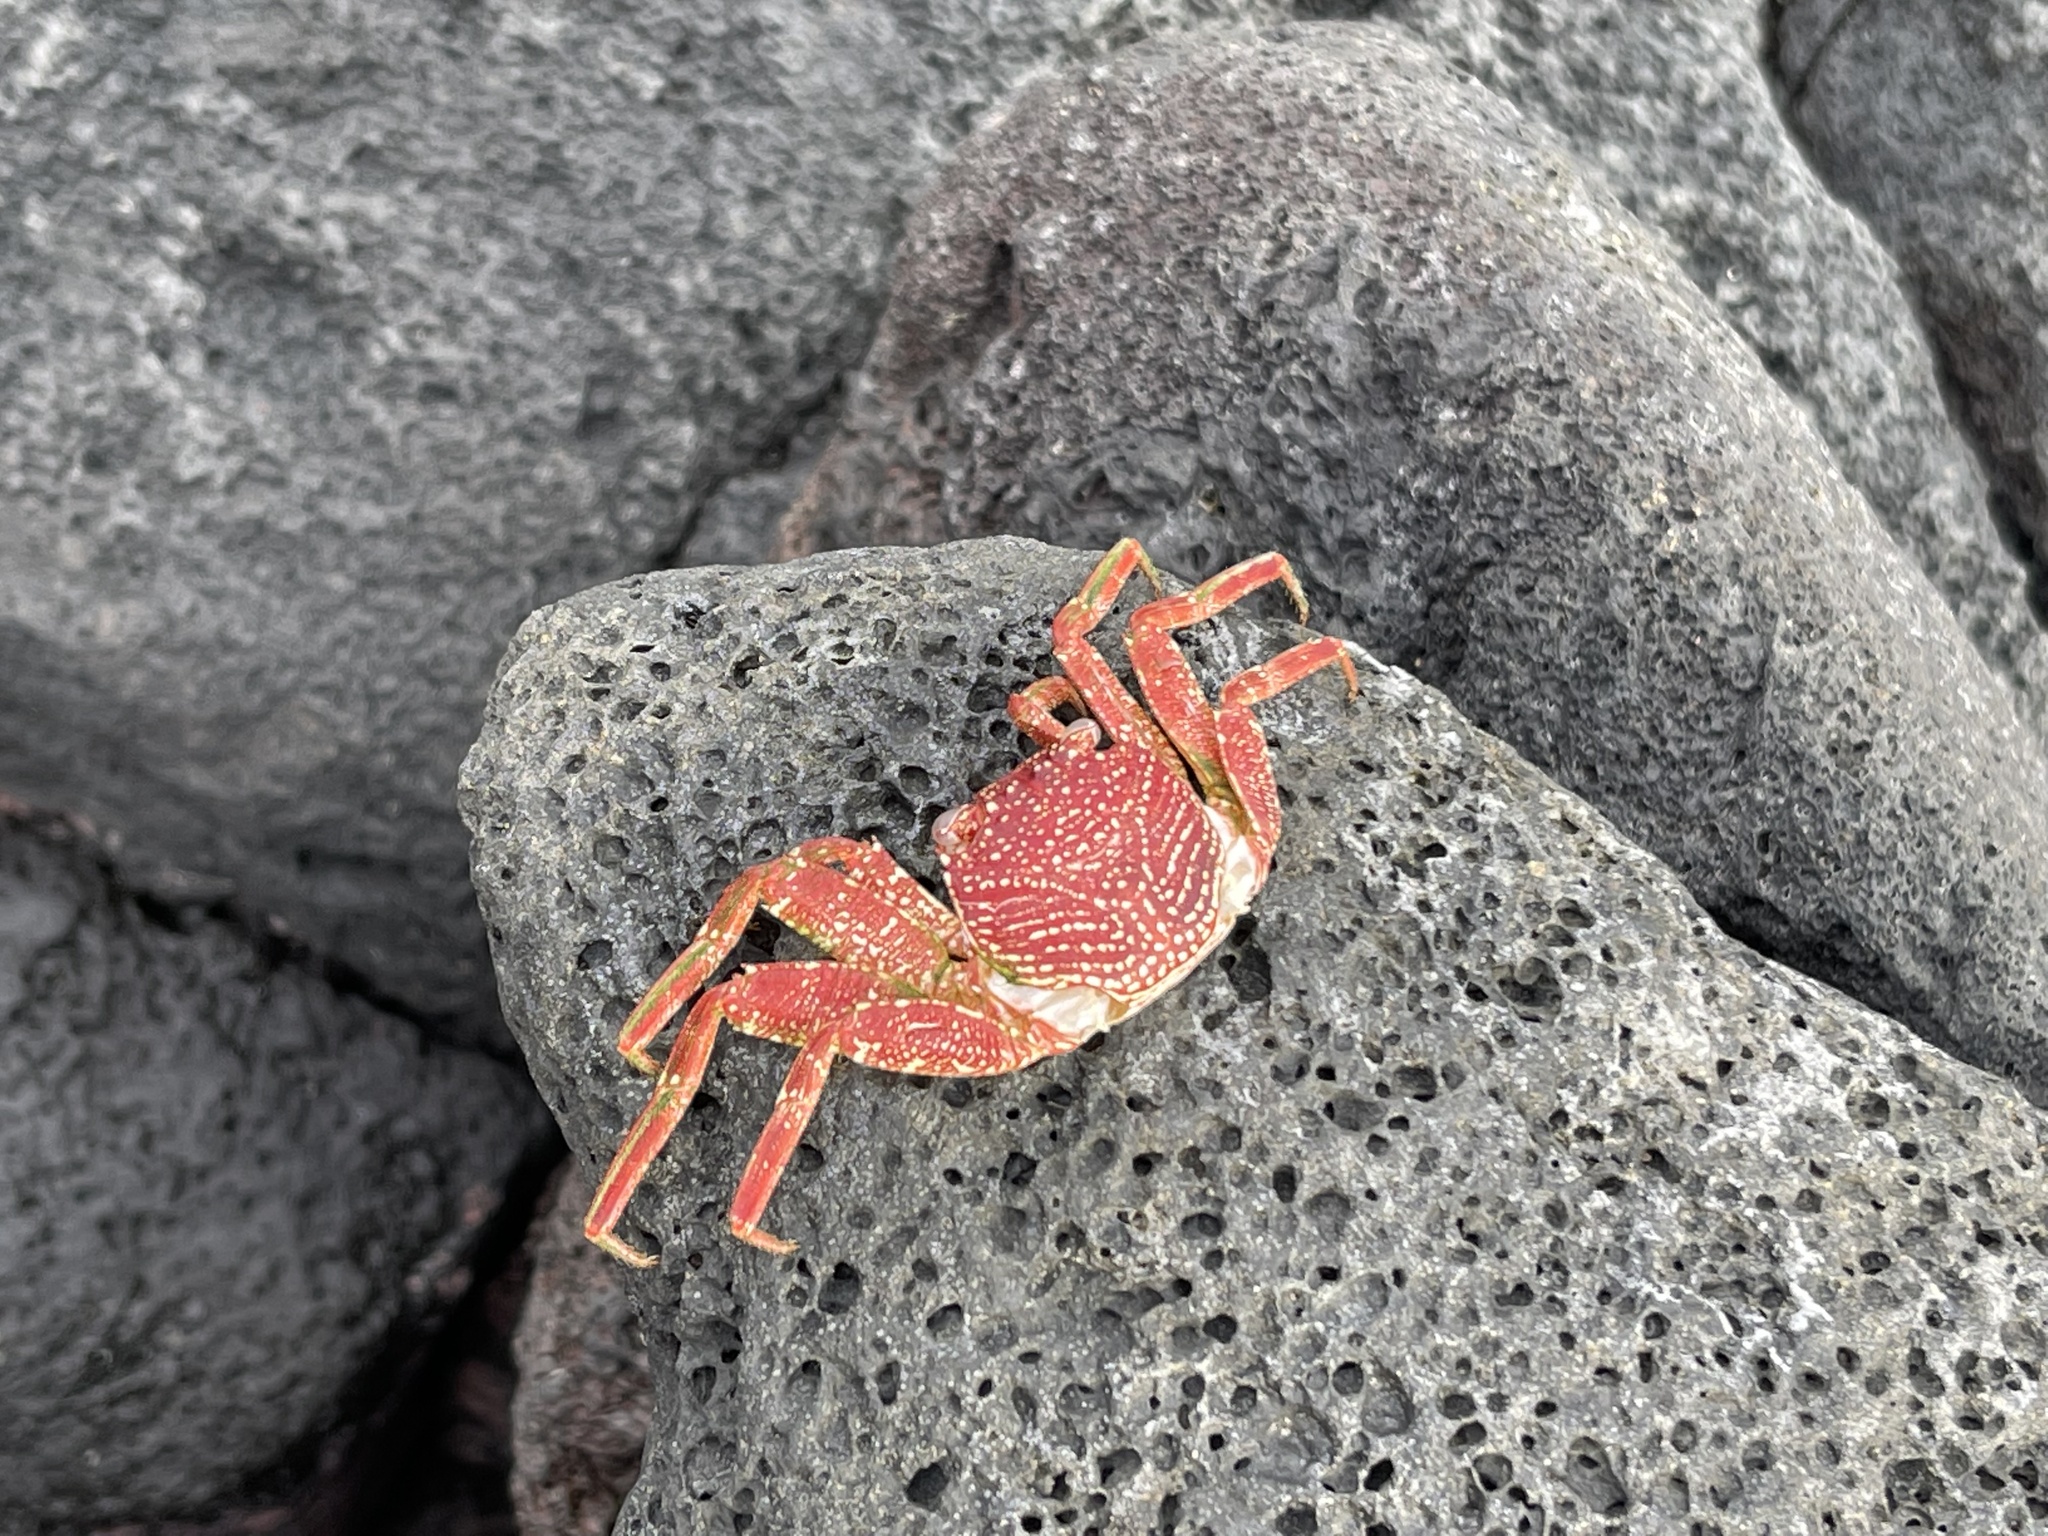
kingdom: Animalia
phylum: Arthropoda
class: Malacostraca
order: Decapoda
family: Grapsidae
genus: Grapsus
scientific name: Grapsus tenuicrustatus
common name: Natal lightfoot crab
